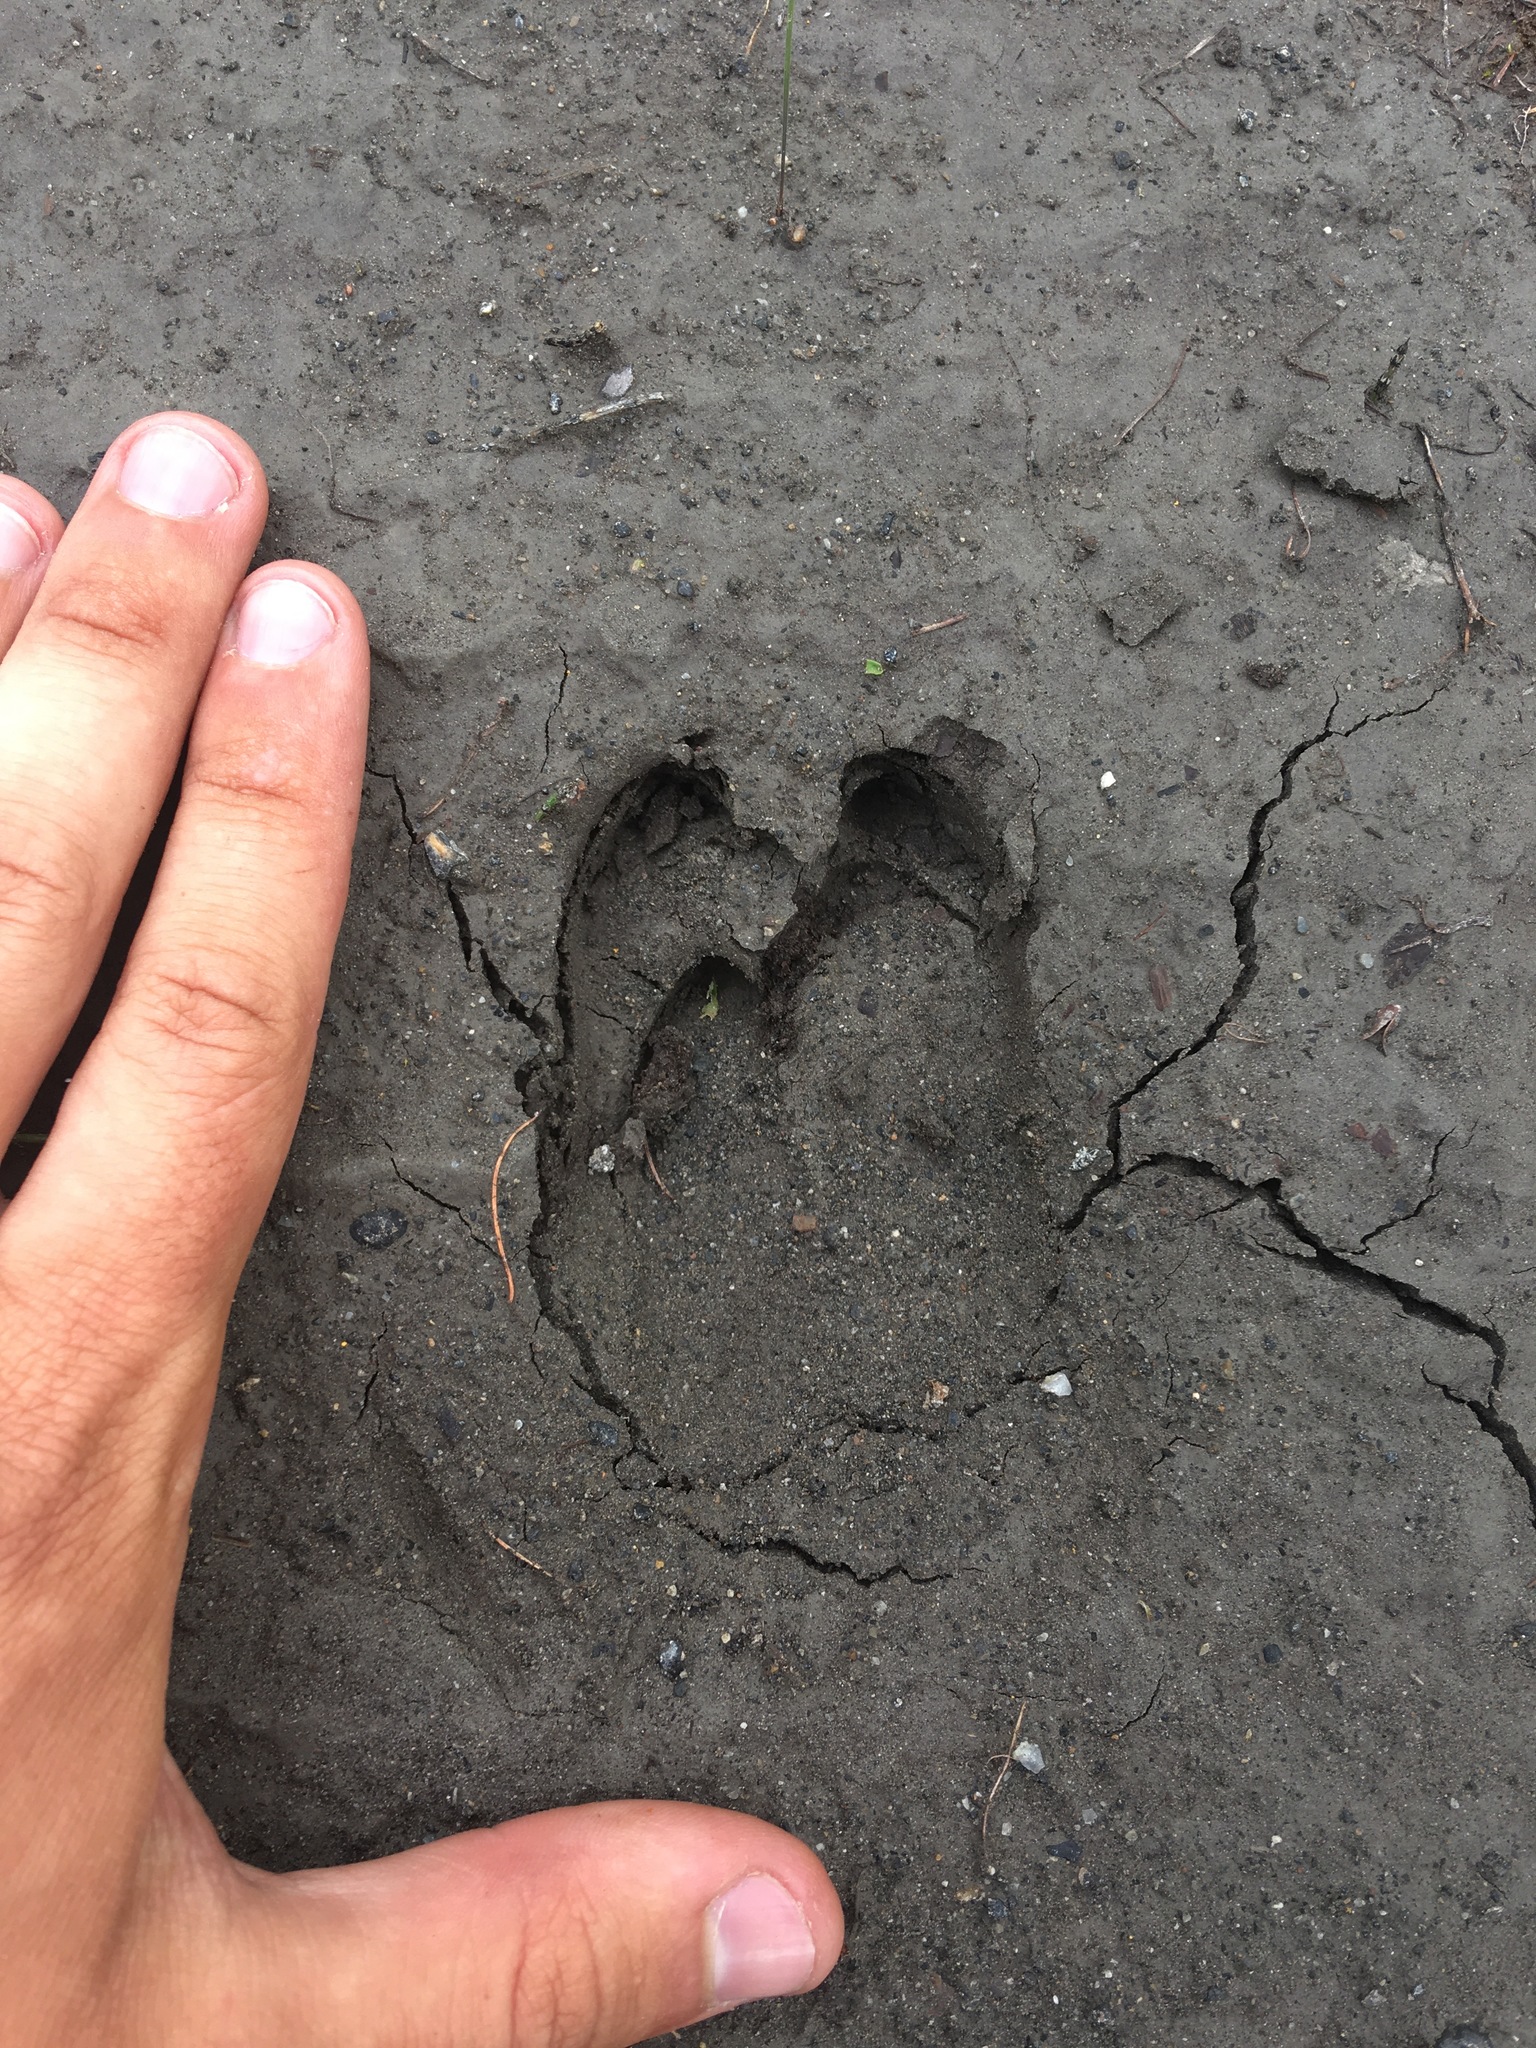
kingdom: Animalia
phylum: Chordata
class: Mammalia
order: Artiodactyla
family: Suidae
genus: Sus
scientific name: Sus scrofa
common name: Wild boar
